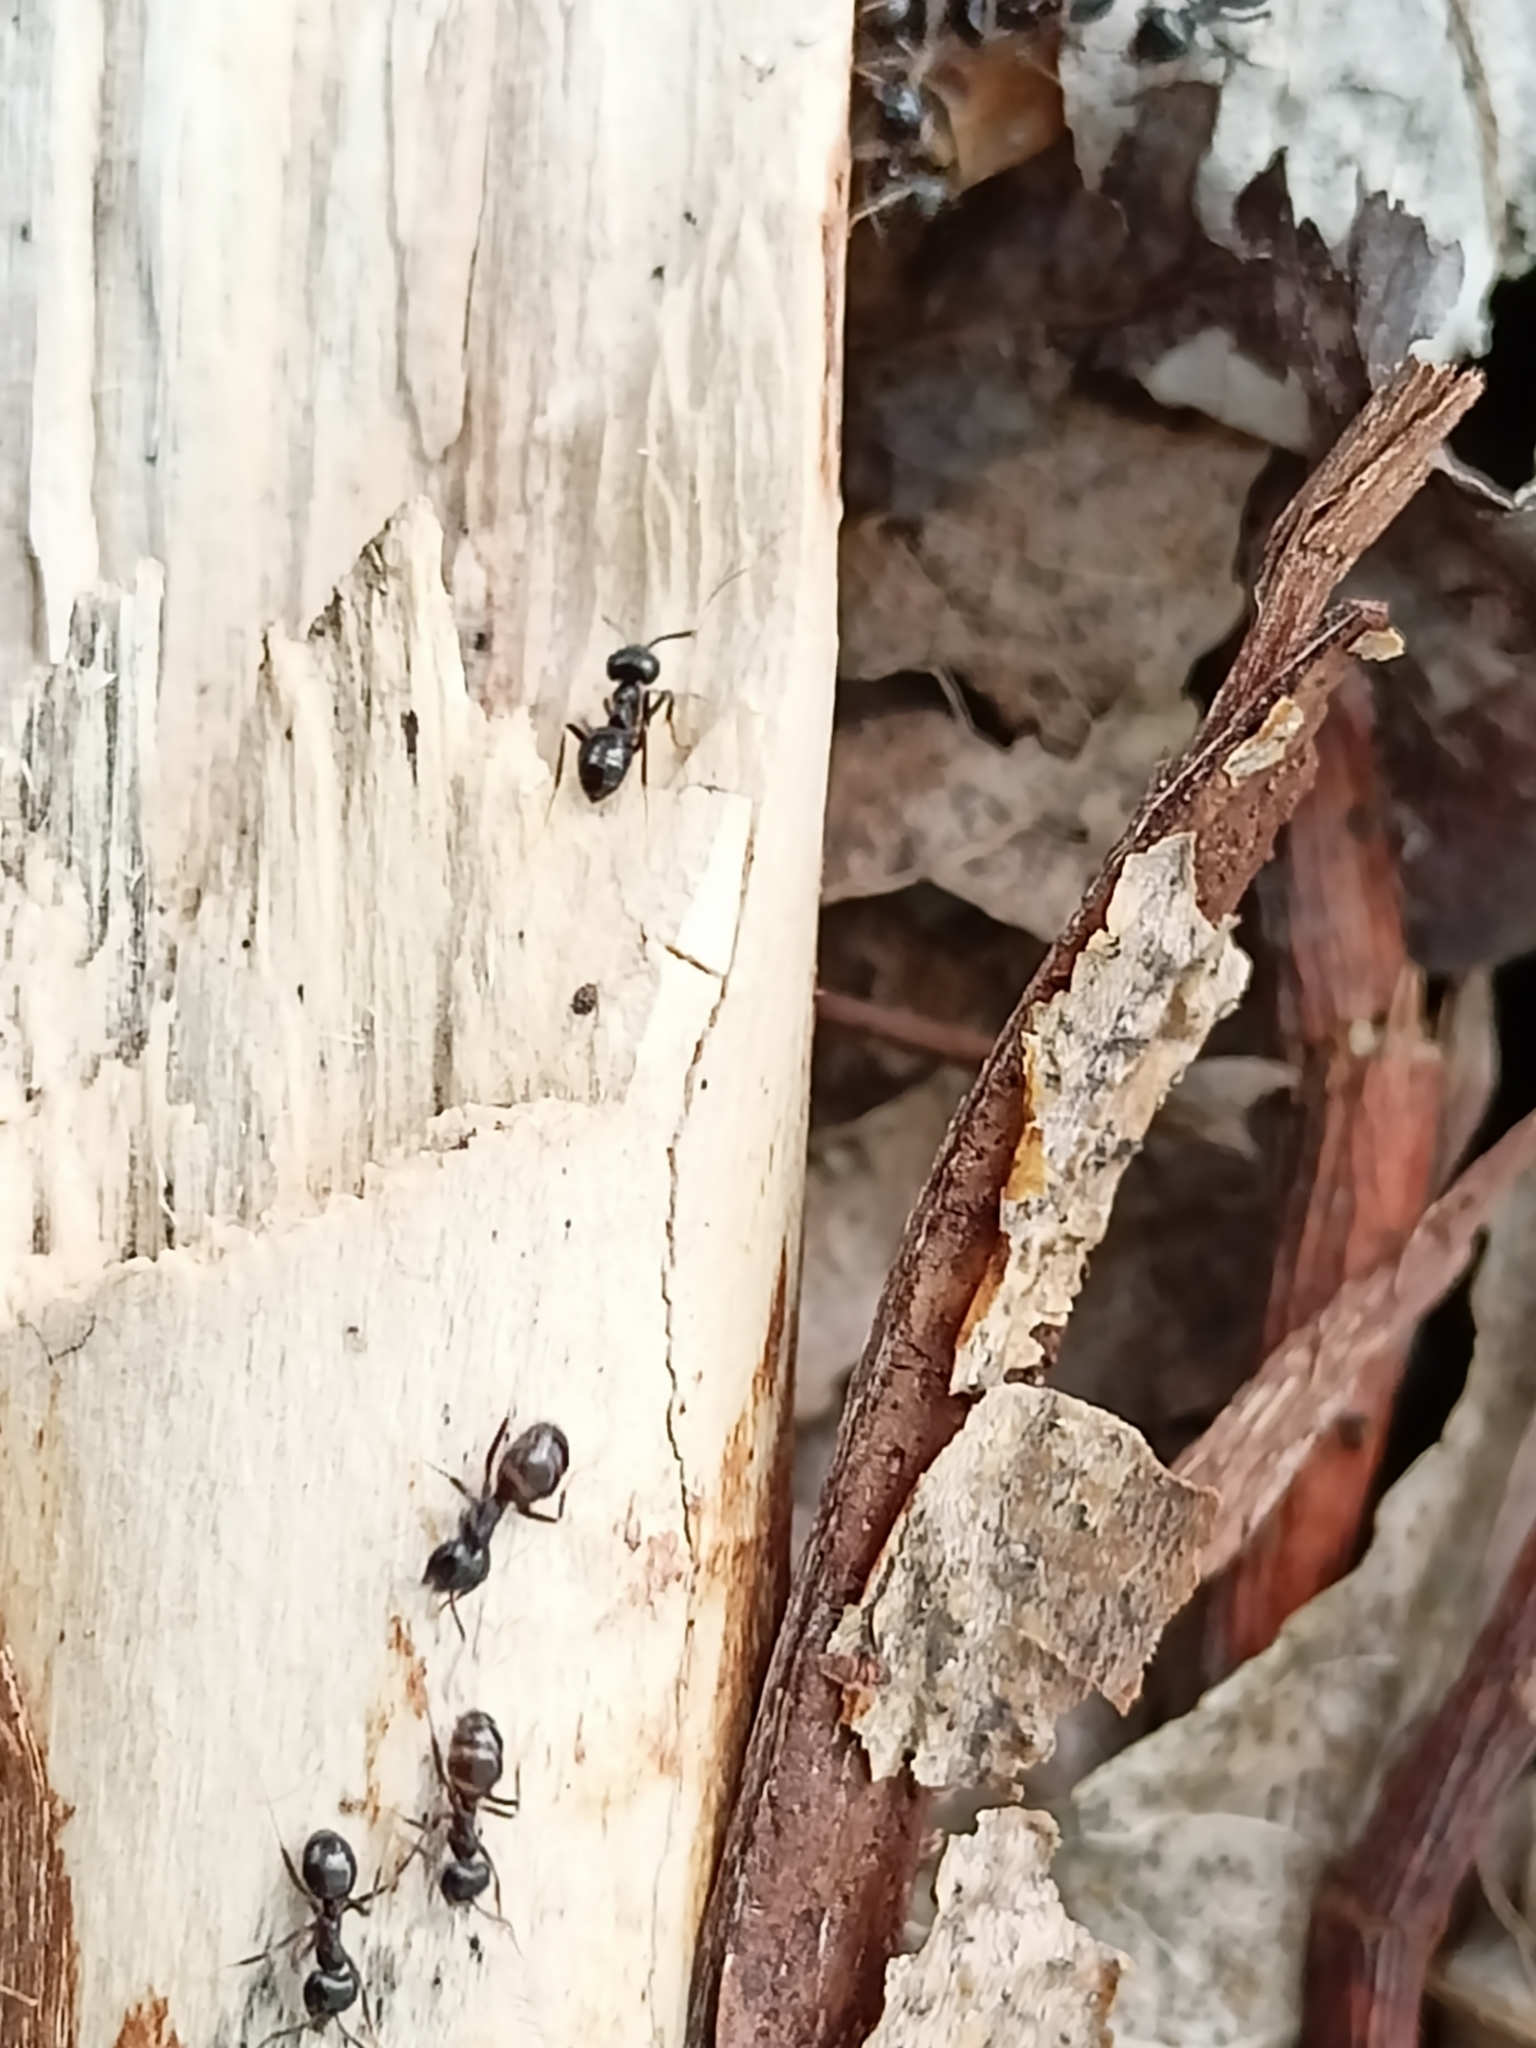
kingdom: Animalia
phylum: Arthropoda
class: Insecta
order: Hymenoptera
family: Formicidae
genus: Lasius
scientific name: Lasius fuliginosus
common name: Jet ant
